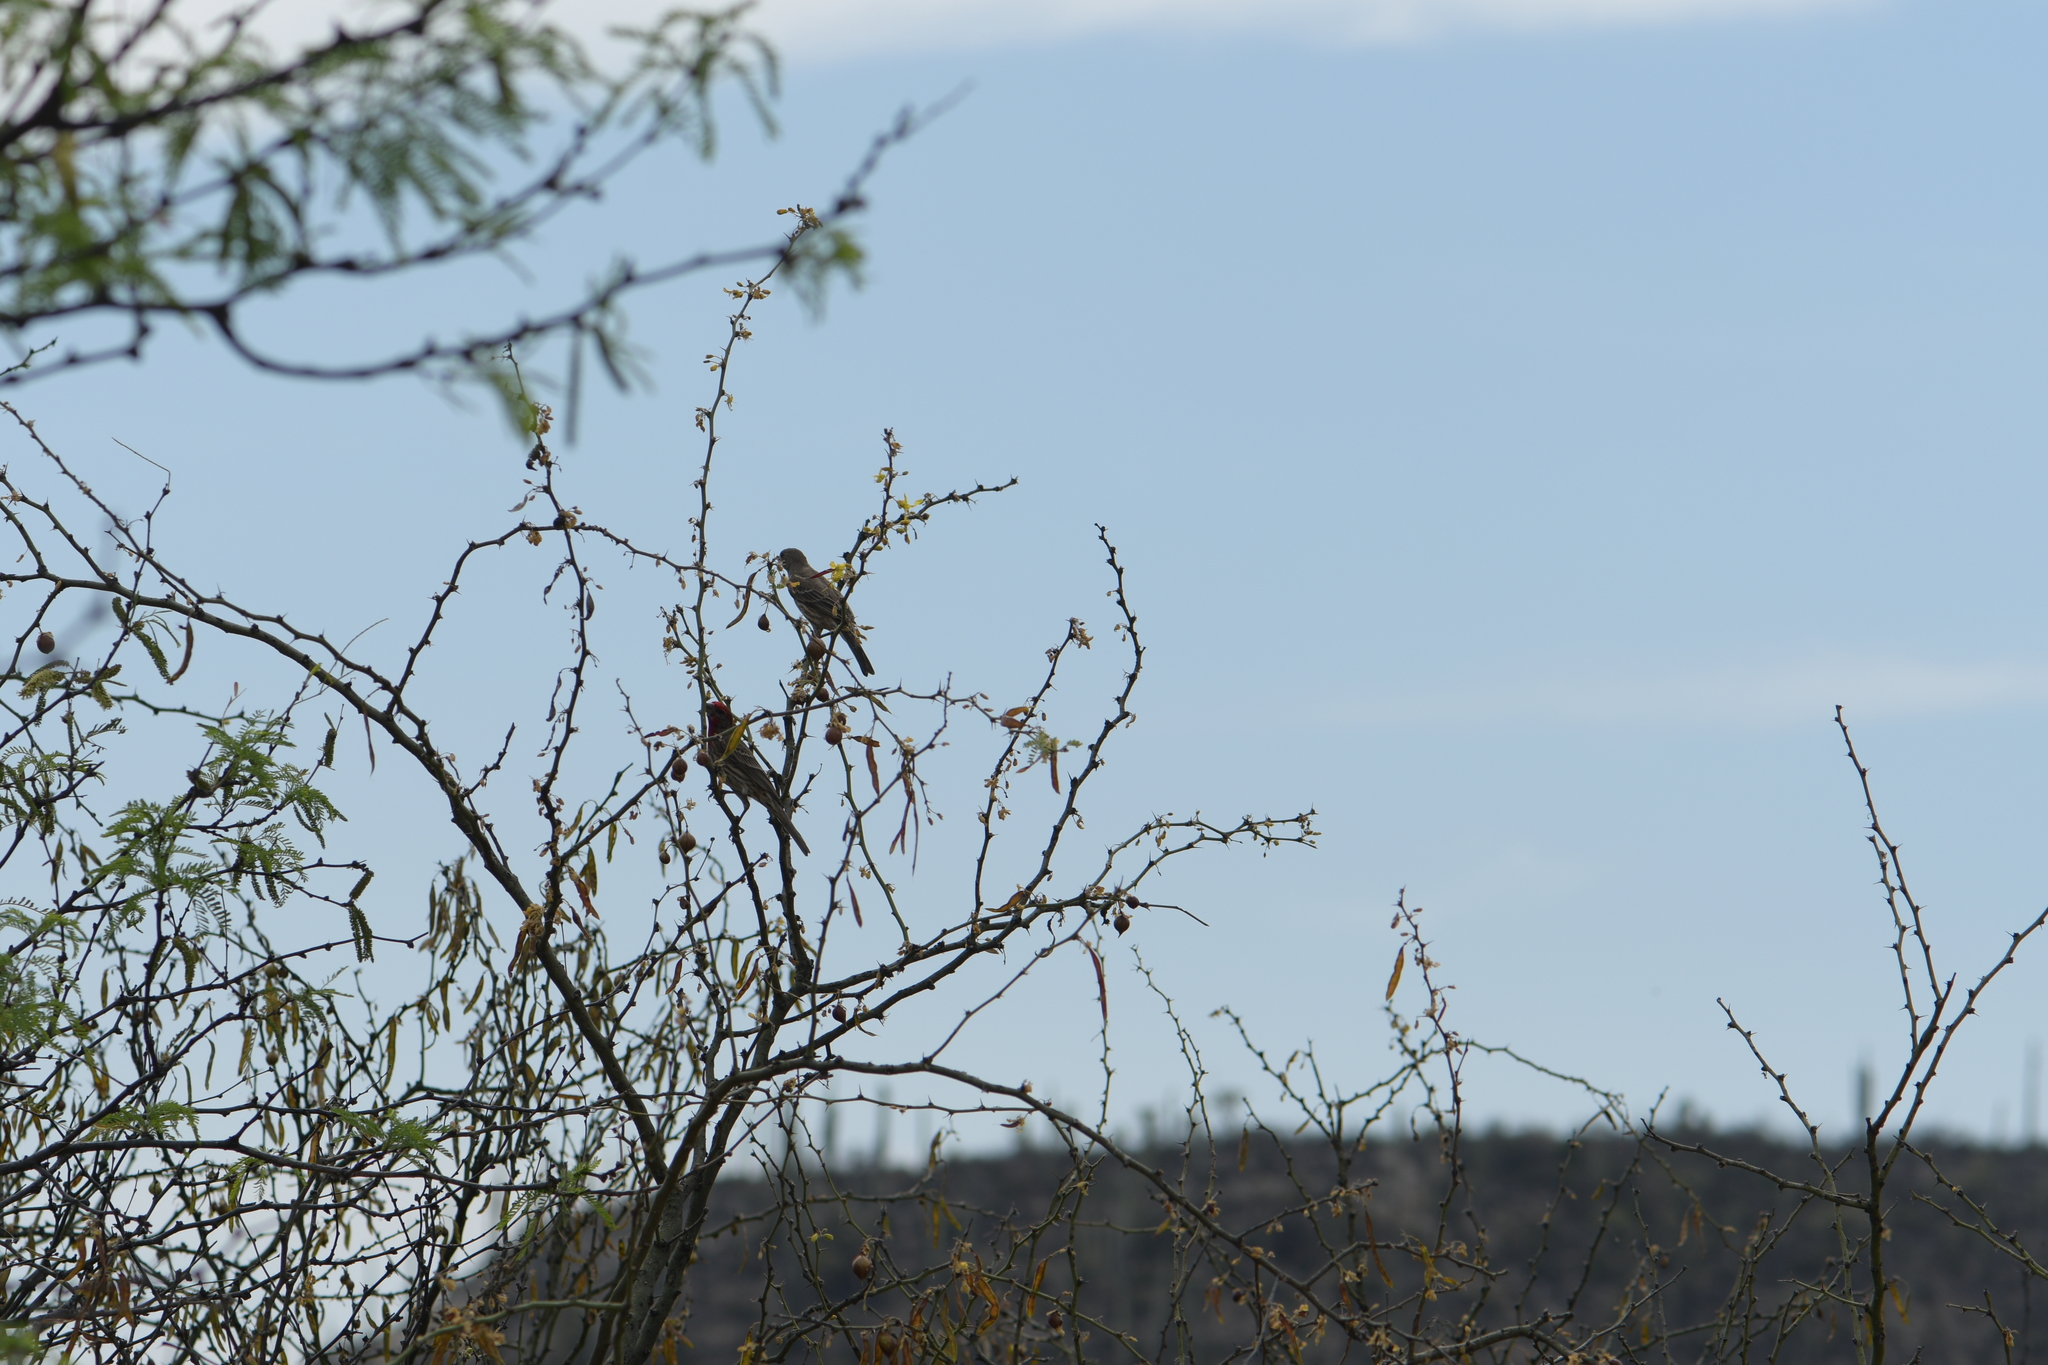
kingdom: Animalia
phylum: Chordata
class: Aves
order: Passeriformes
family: Fringillidae
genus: Haemorhous
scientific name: Haemorhous mexicanus
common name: House finch
